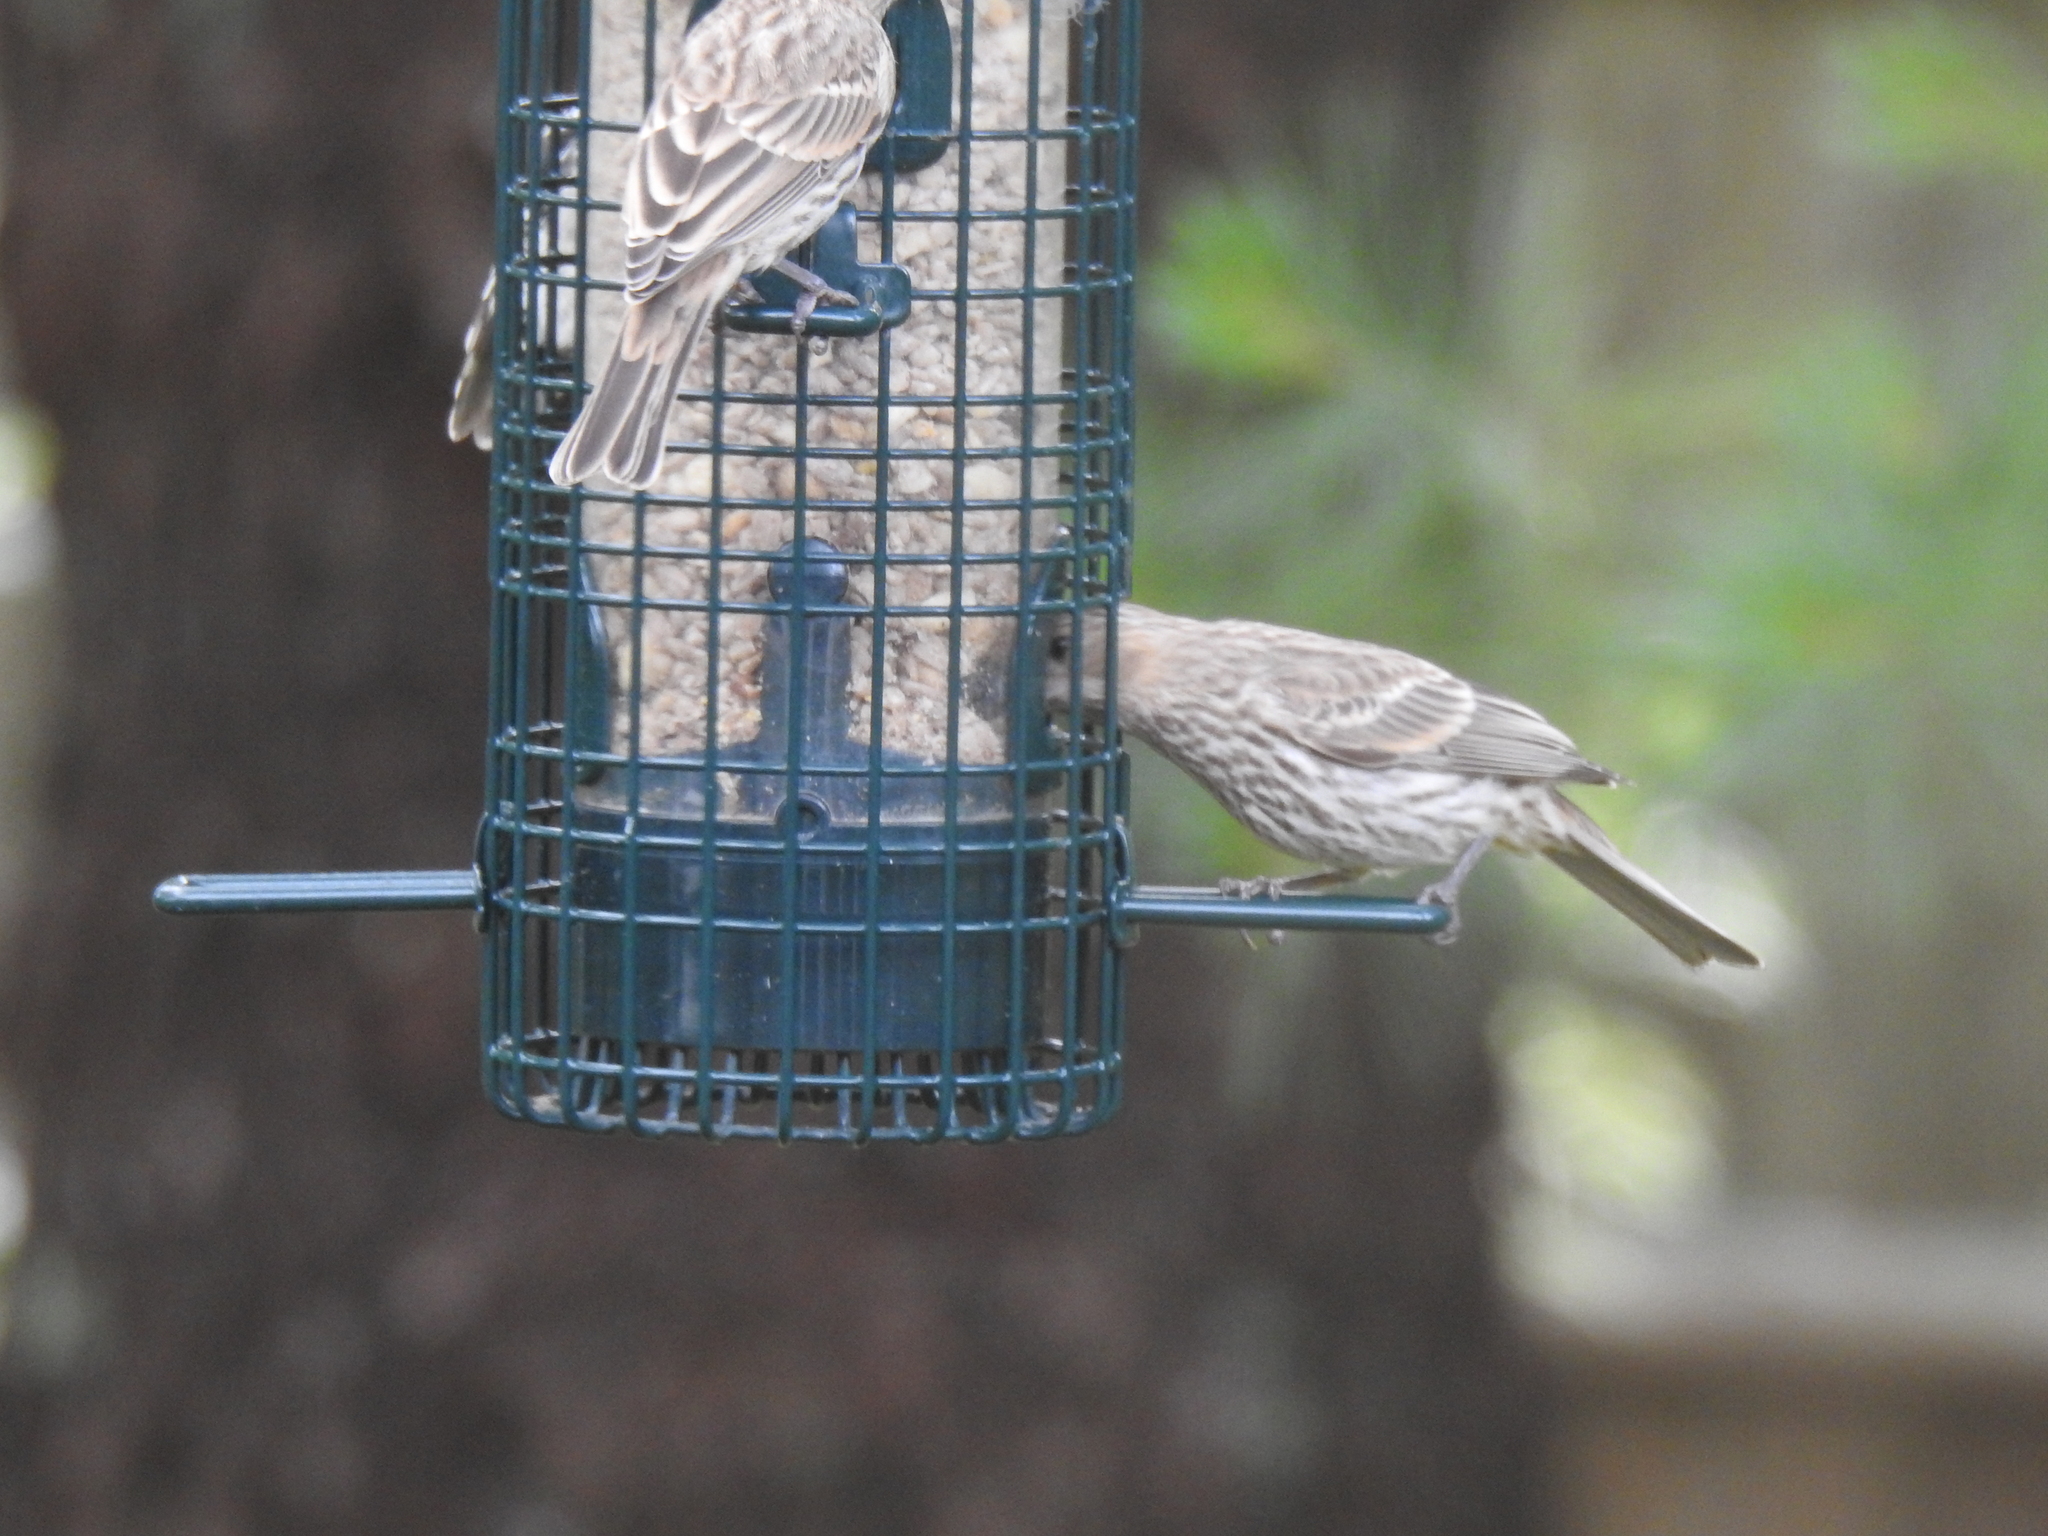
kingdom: Animalia
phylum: Chordata
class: Aves
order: Passeriformes
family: Fringillidae
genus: Haemorhous
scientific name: Haemorhous mexicanus
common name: House finch
